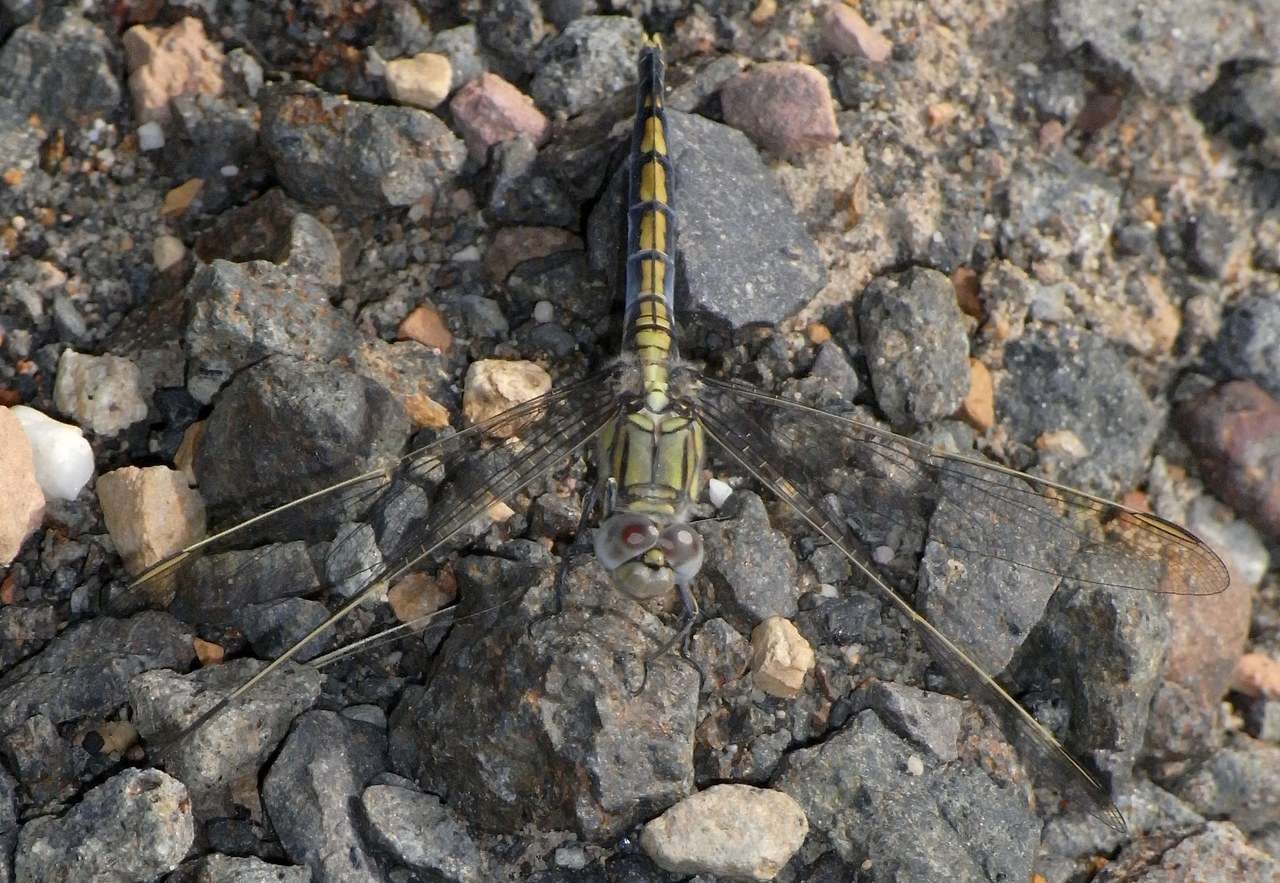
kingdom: Animalia
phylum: Arthropoda
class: Insecta
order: Odonata
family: Libellulidae
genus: Orthetrum
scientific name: Orthetrum caledonicum
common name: Blue skimmer
